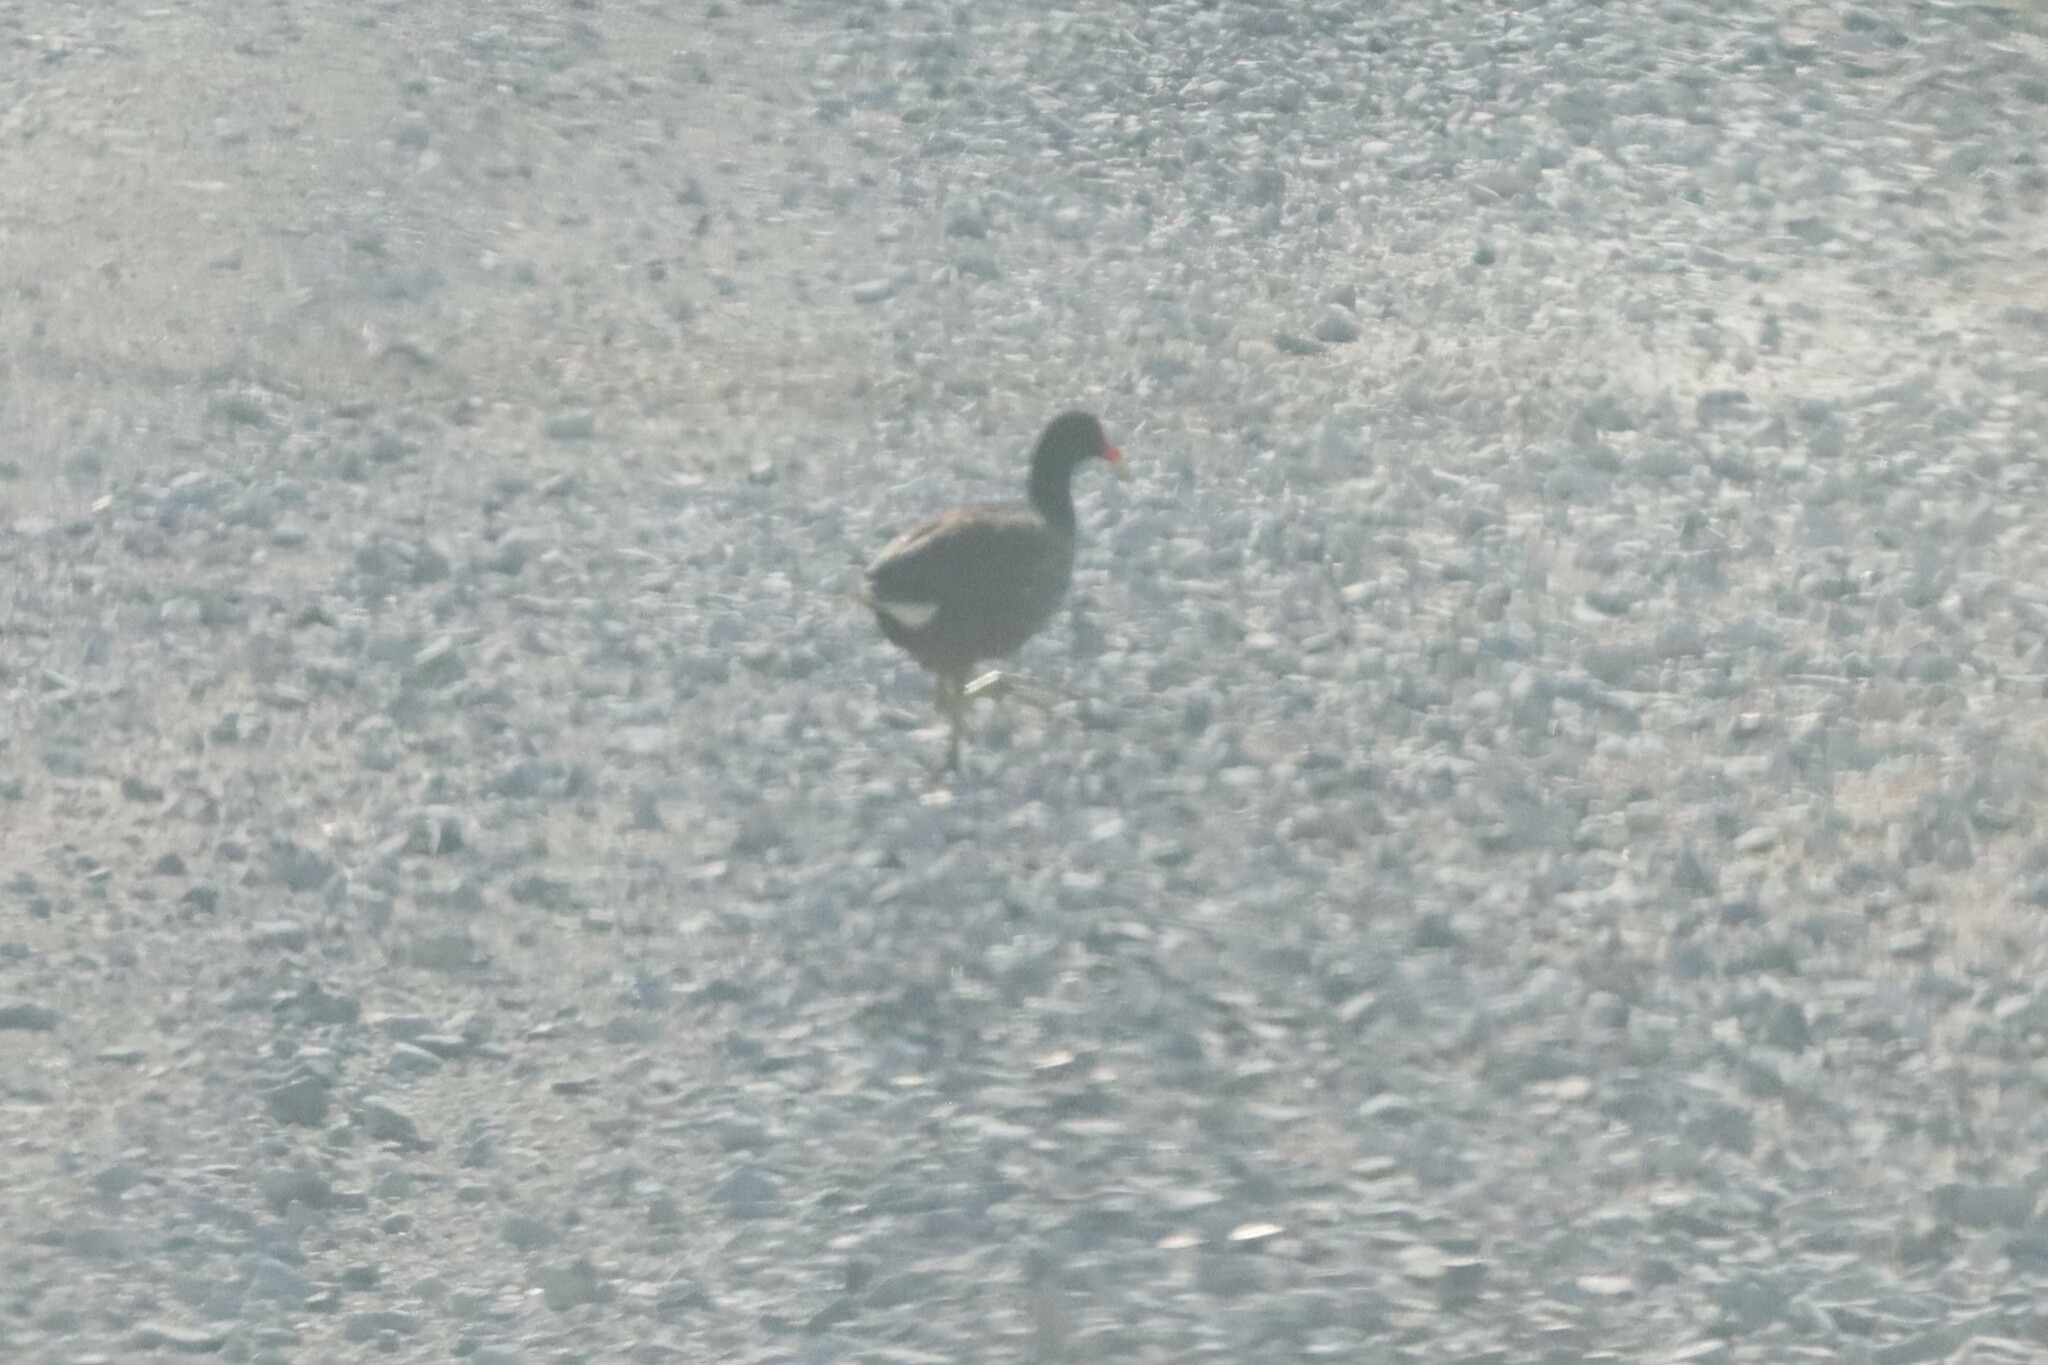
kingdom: Animalia
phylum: Chordata
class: Aves
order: Gruiformes
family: Rallidae
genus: Gallinula
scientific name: Gallinula chloropus
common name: Common moorhen
